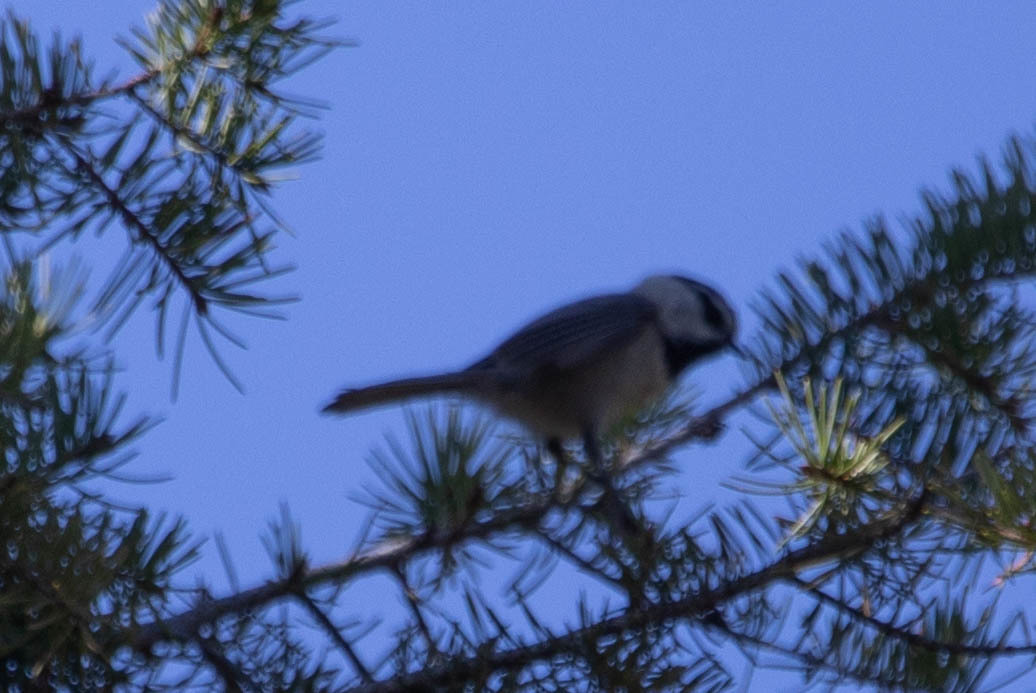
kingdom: Animalia
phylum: Chordata
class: Aves
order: Passeriformes
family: Paridae
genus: Poecile
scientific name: Poecile gambeli
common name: Mountain chickadee
